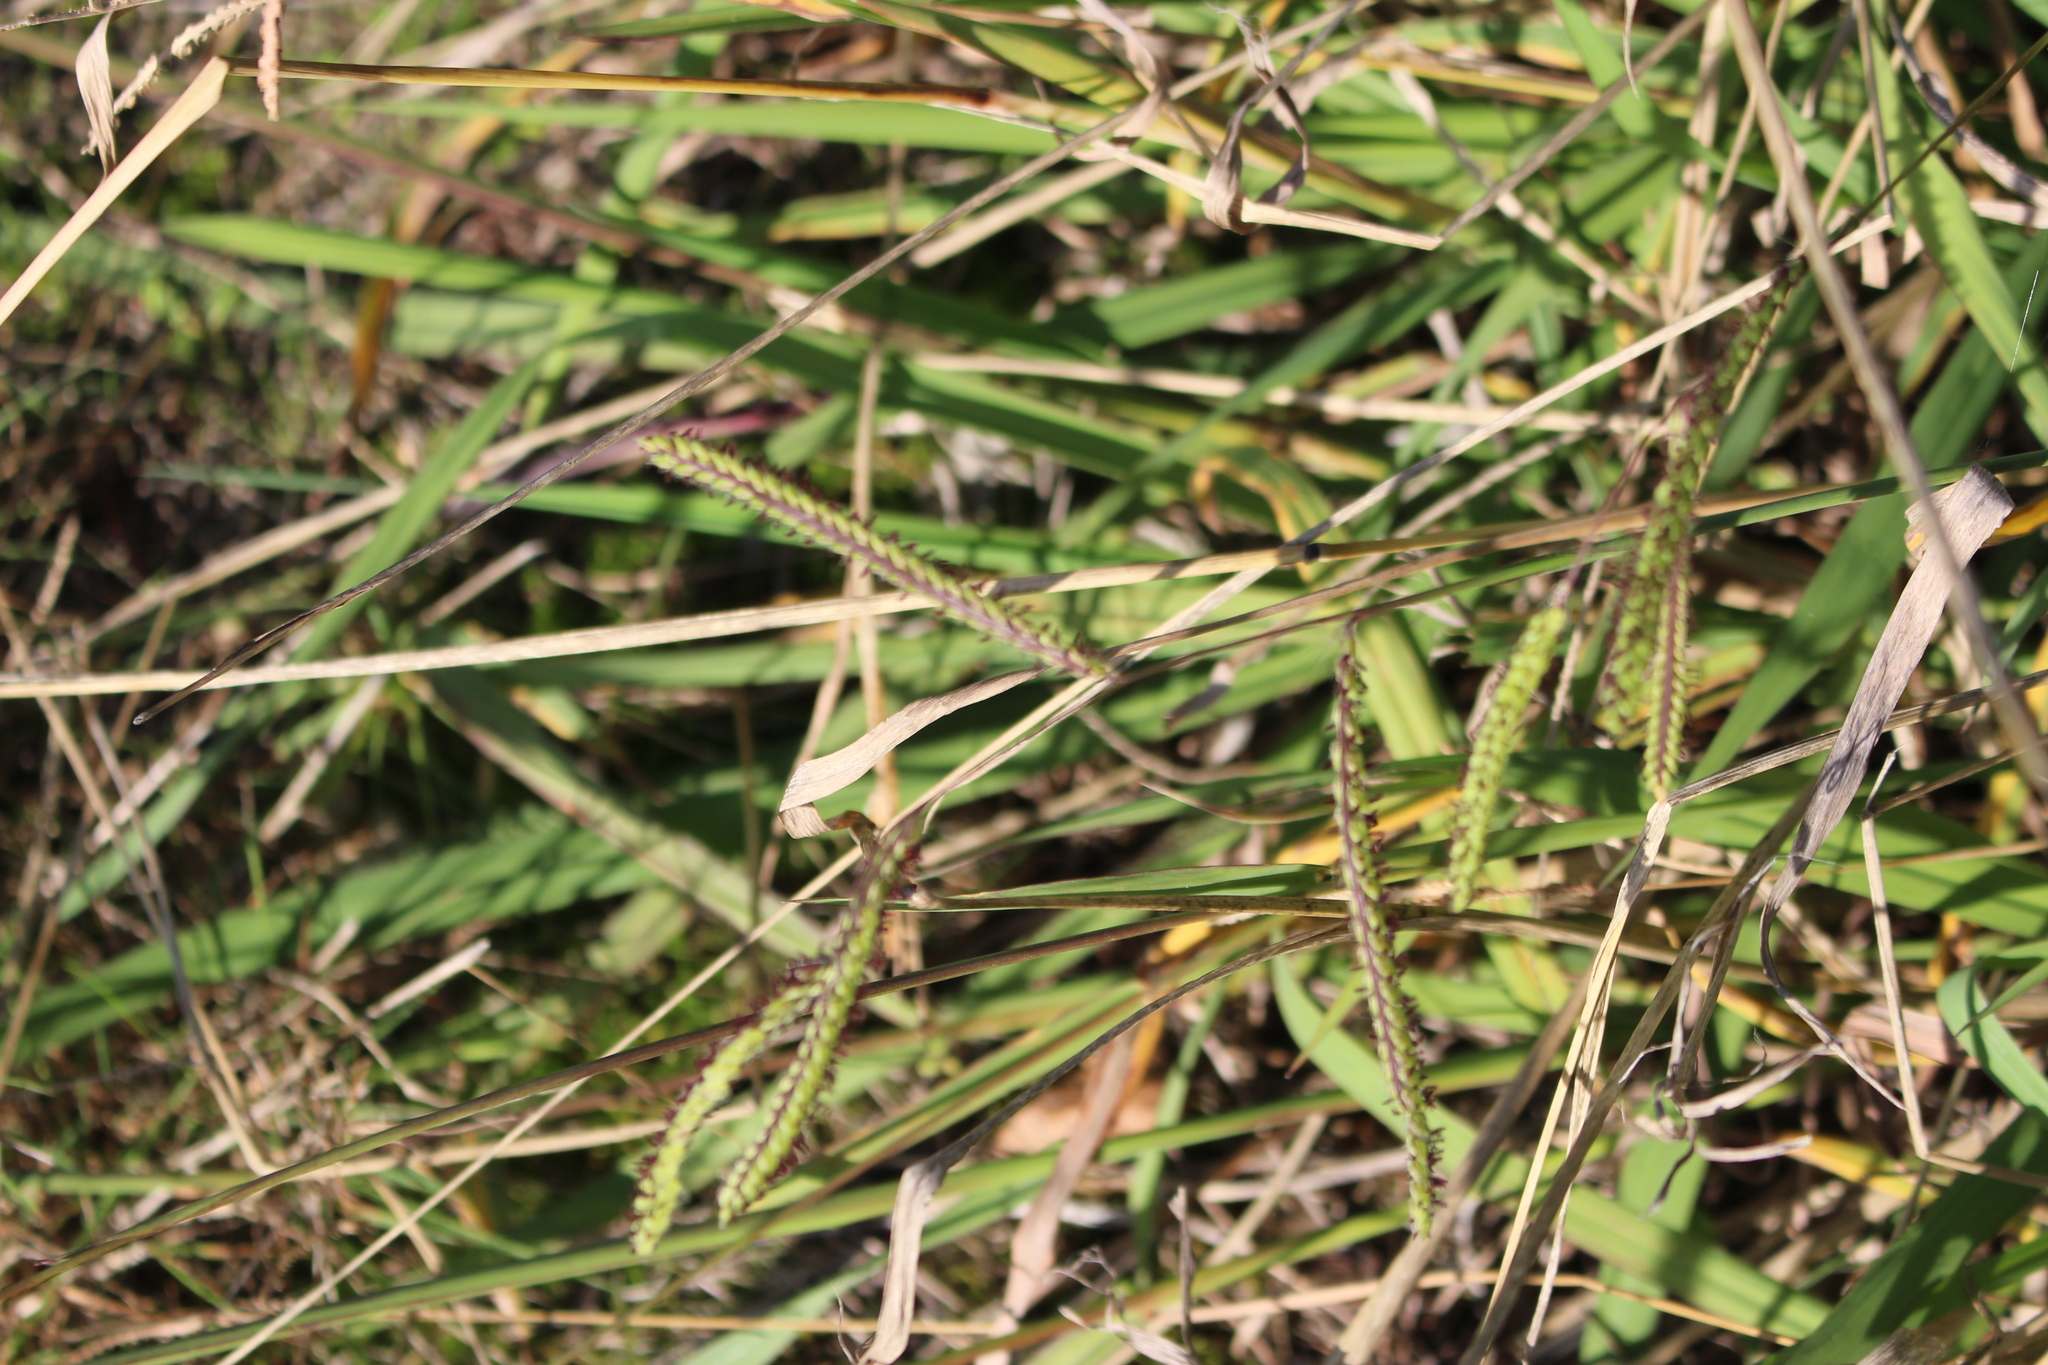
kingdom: Plantae
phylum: Tracheophyta
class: Liliopsida
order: Poales
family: Poaceae
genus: Paspalum
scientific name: Paspalum dilatatum
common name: Dallisgrass
